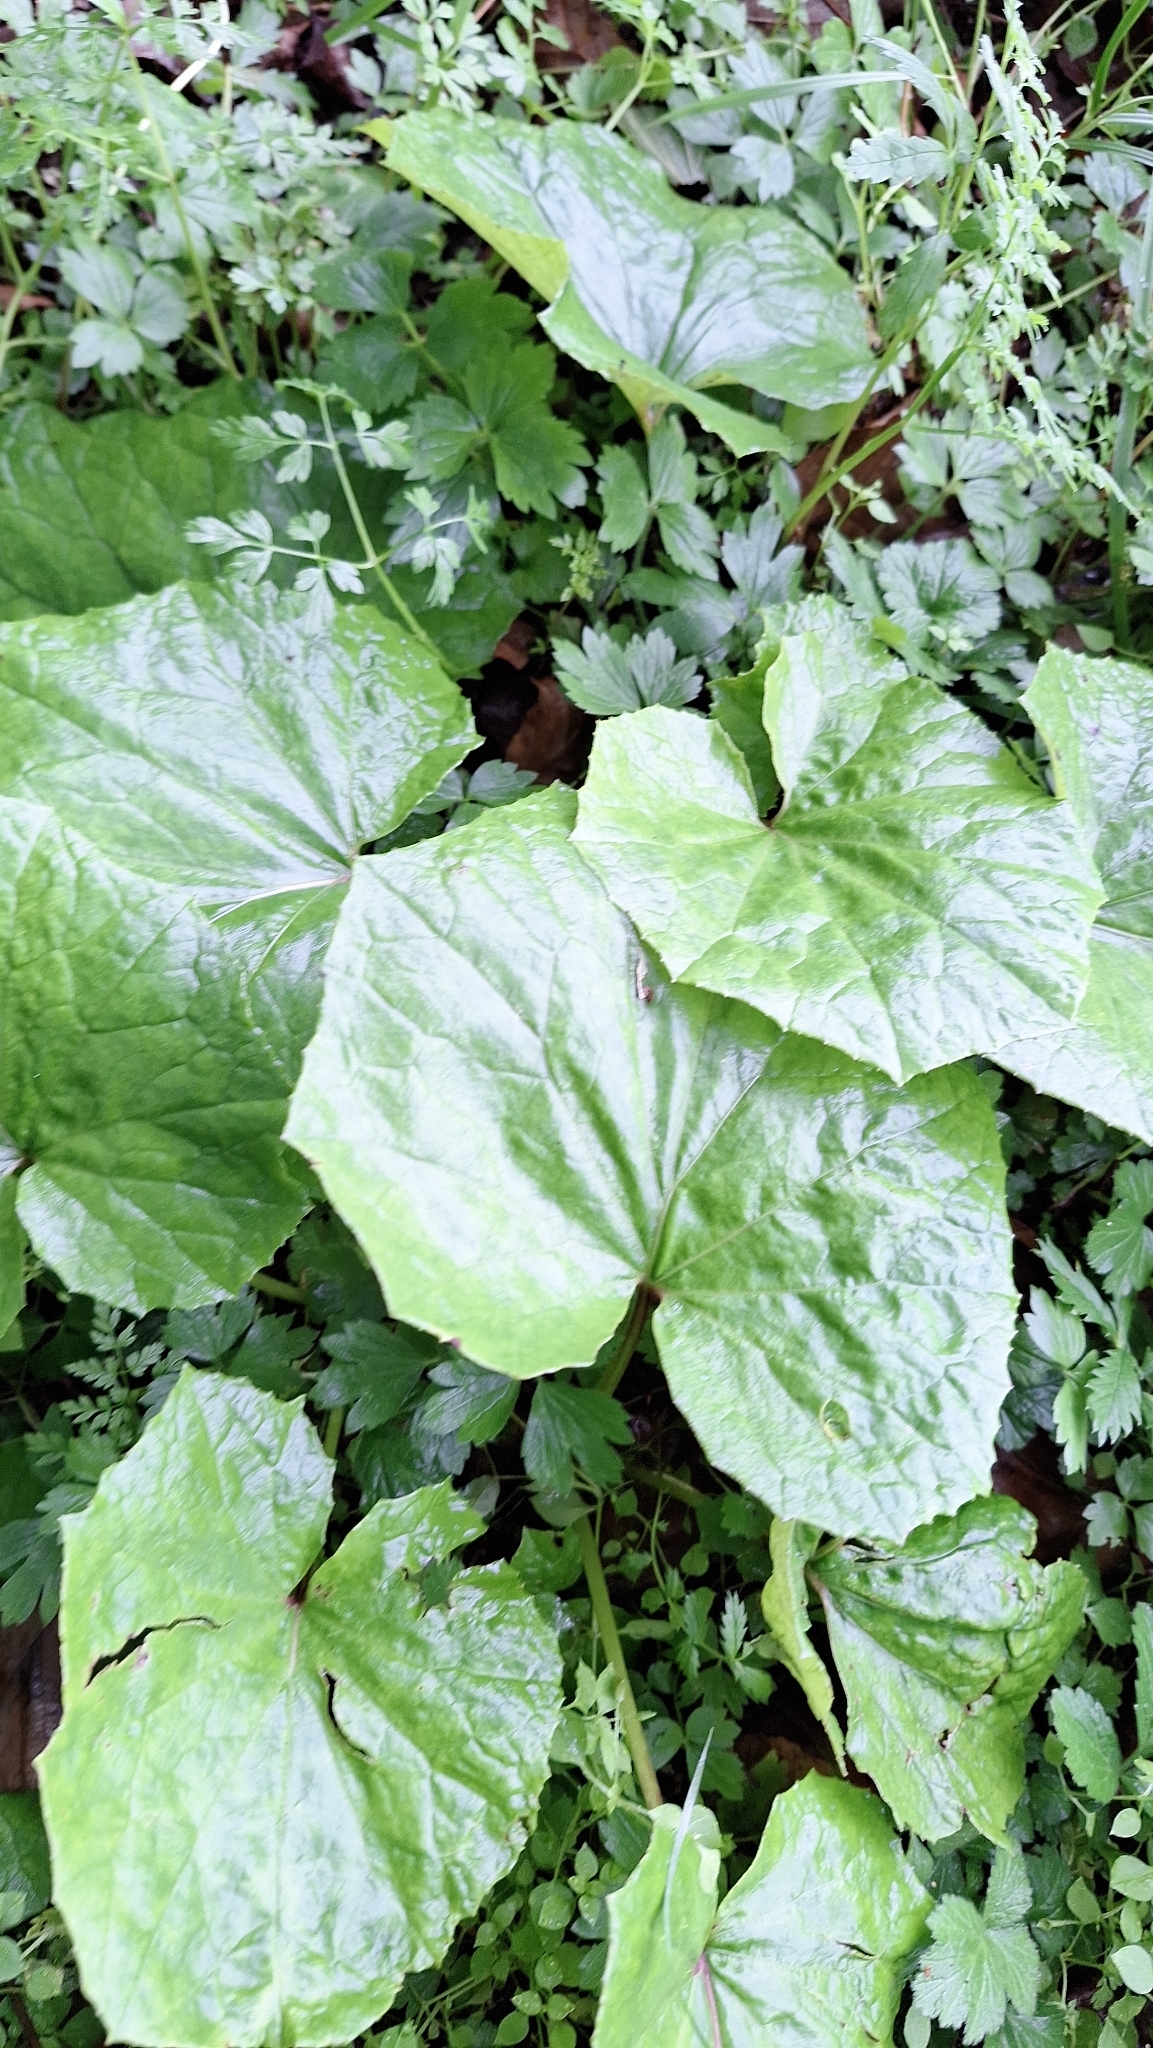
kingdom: Plantae
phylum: Tracheophyta
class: Magnoliopsida
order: Asterales
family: Asteraceae
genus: Tussilago
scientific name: Tussilago farfara
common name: Coltsfoot
